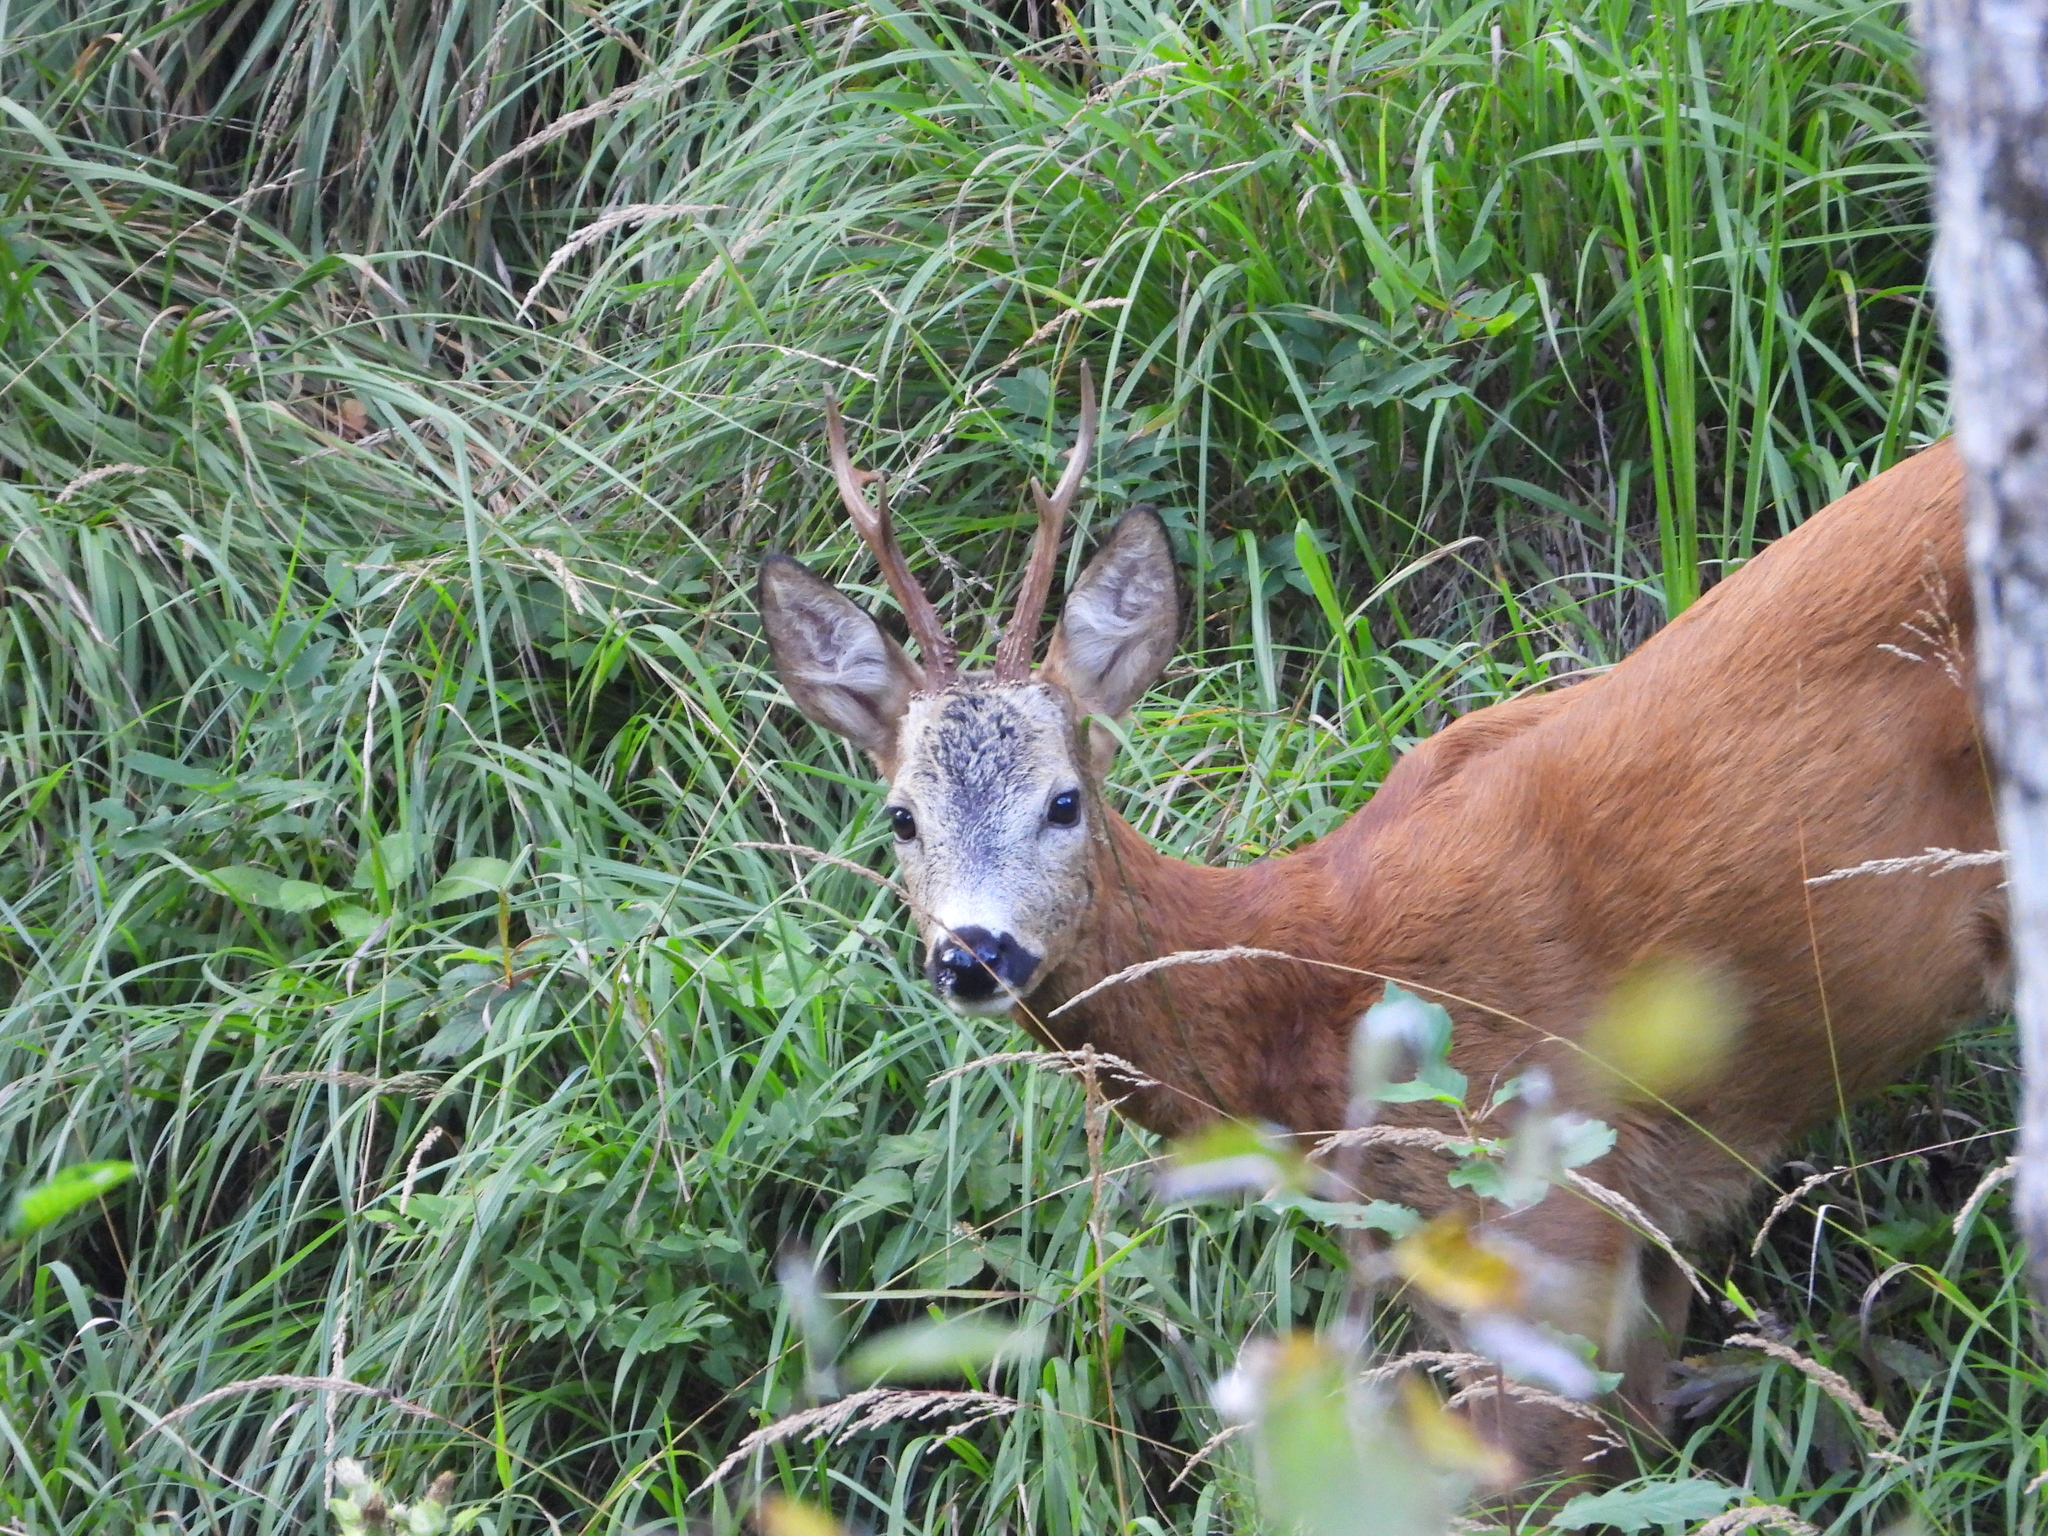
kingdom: Animalia
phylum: Chordata
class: Mammalia
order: Artiodactyla
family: Cervidae
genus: Capreolus
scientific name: Capreolus capreolus
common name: Western roe deer
